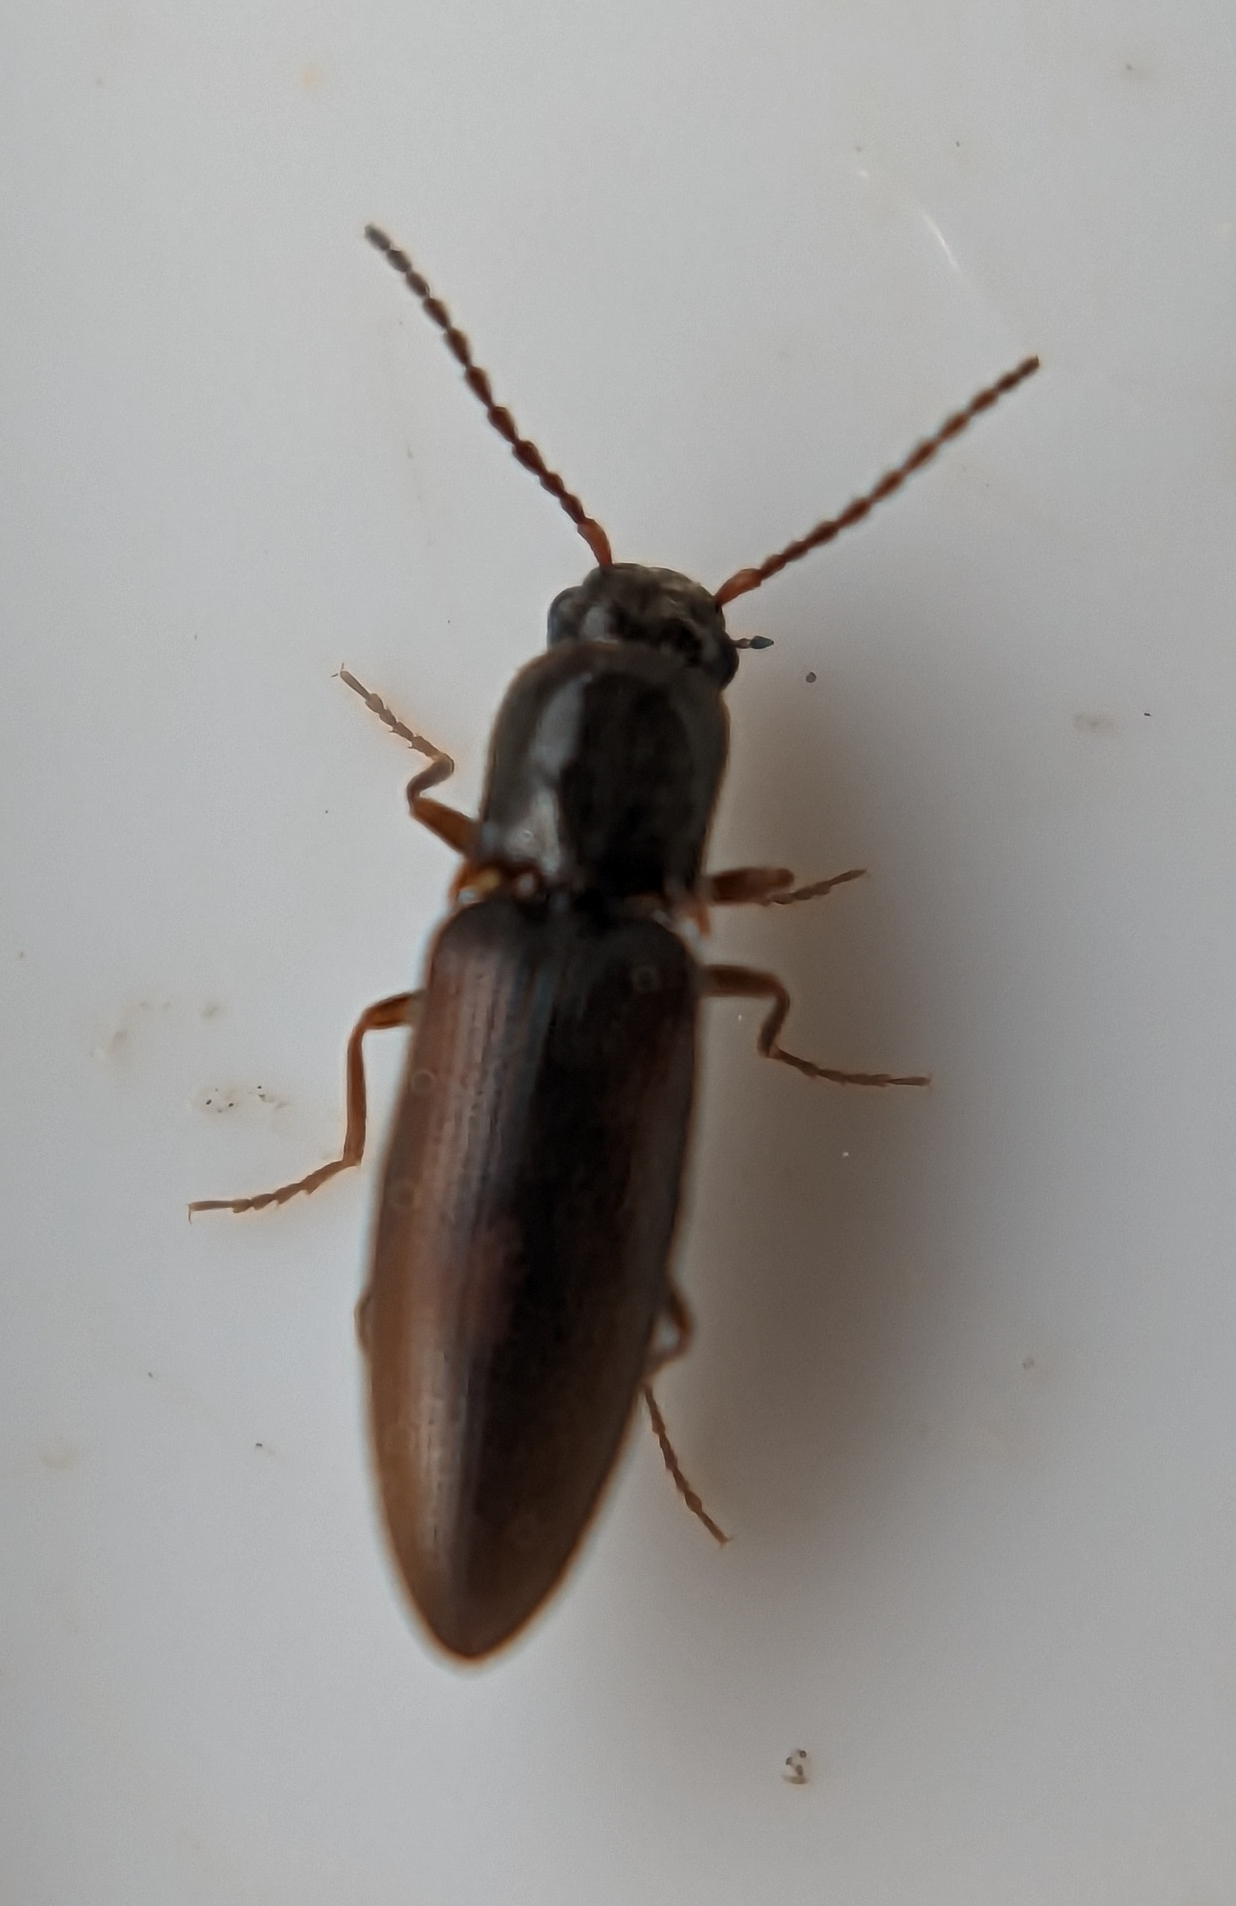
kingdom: Animalia
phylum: Arthropoda
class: Insecta
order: Coleoptera
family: Elateridae
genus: Agriotes
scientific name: Agriotes pallidulus
